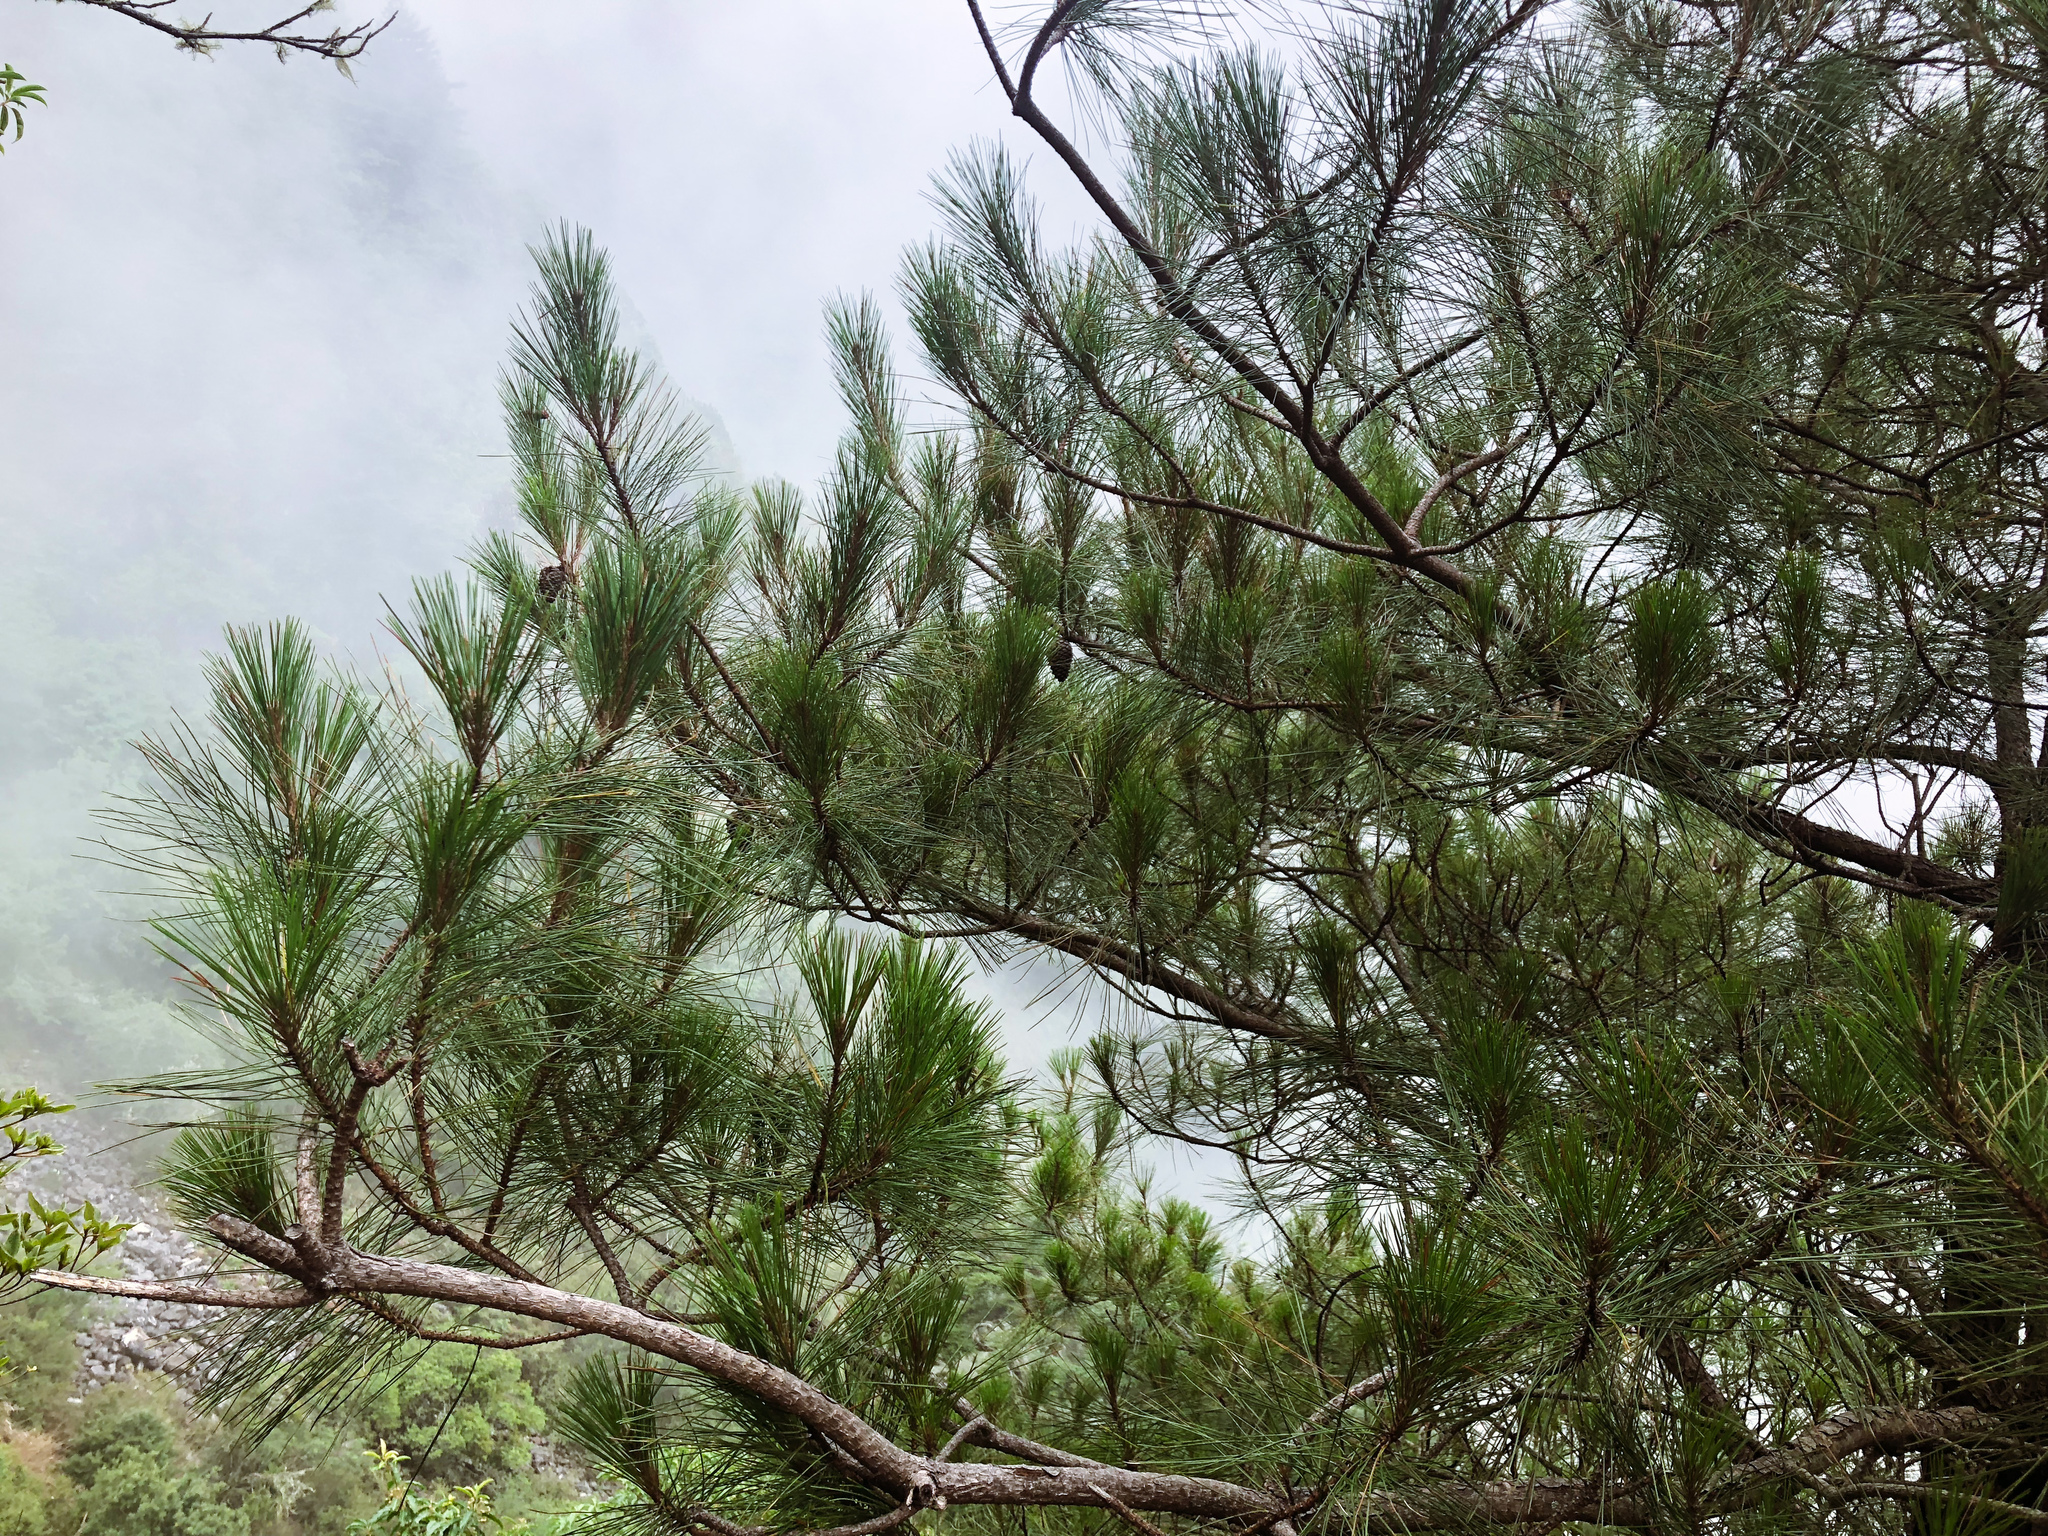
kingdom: Plantae
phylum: Tracheophyta
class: Pinopsida
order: Pinales
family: Pinaceae
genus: Pinus
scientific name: Pinus taiwanensis
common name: Formosa pine
